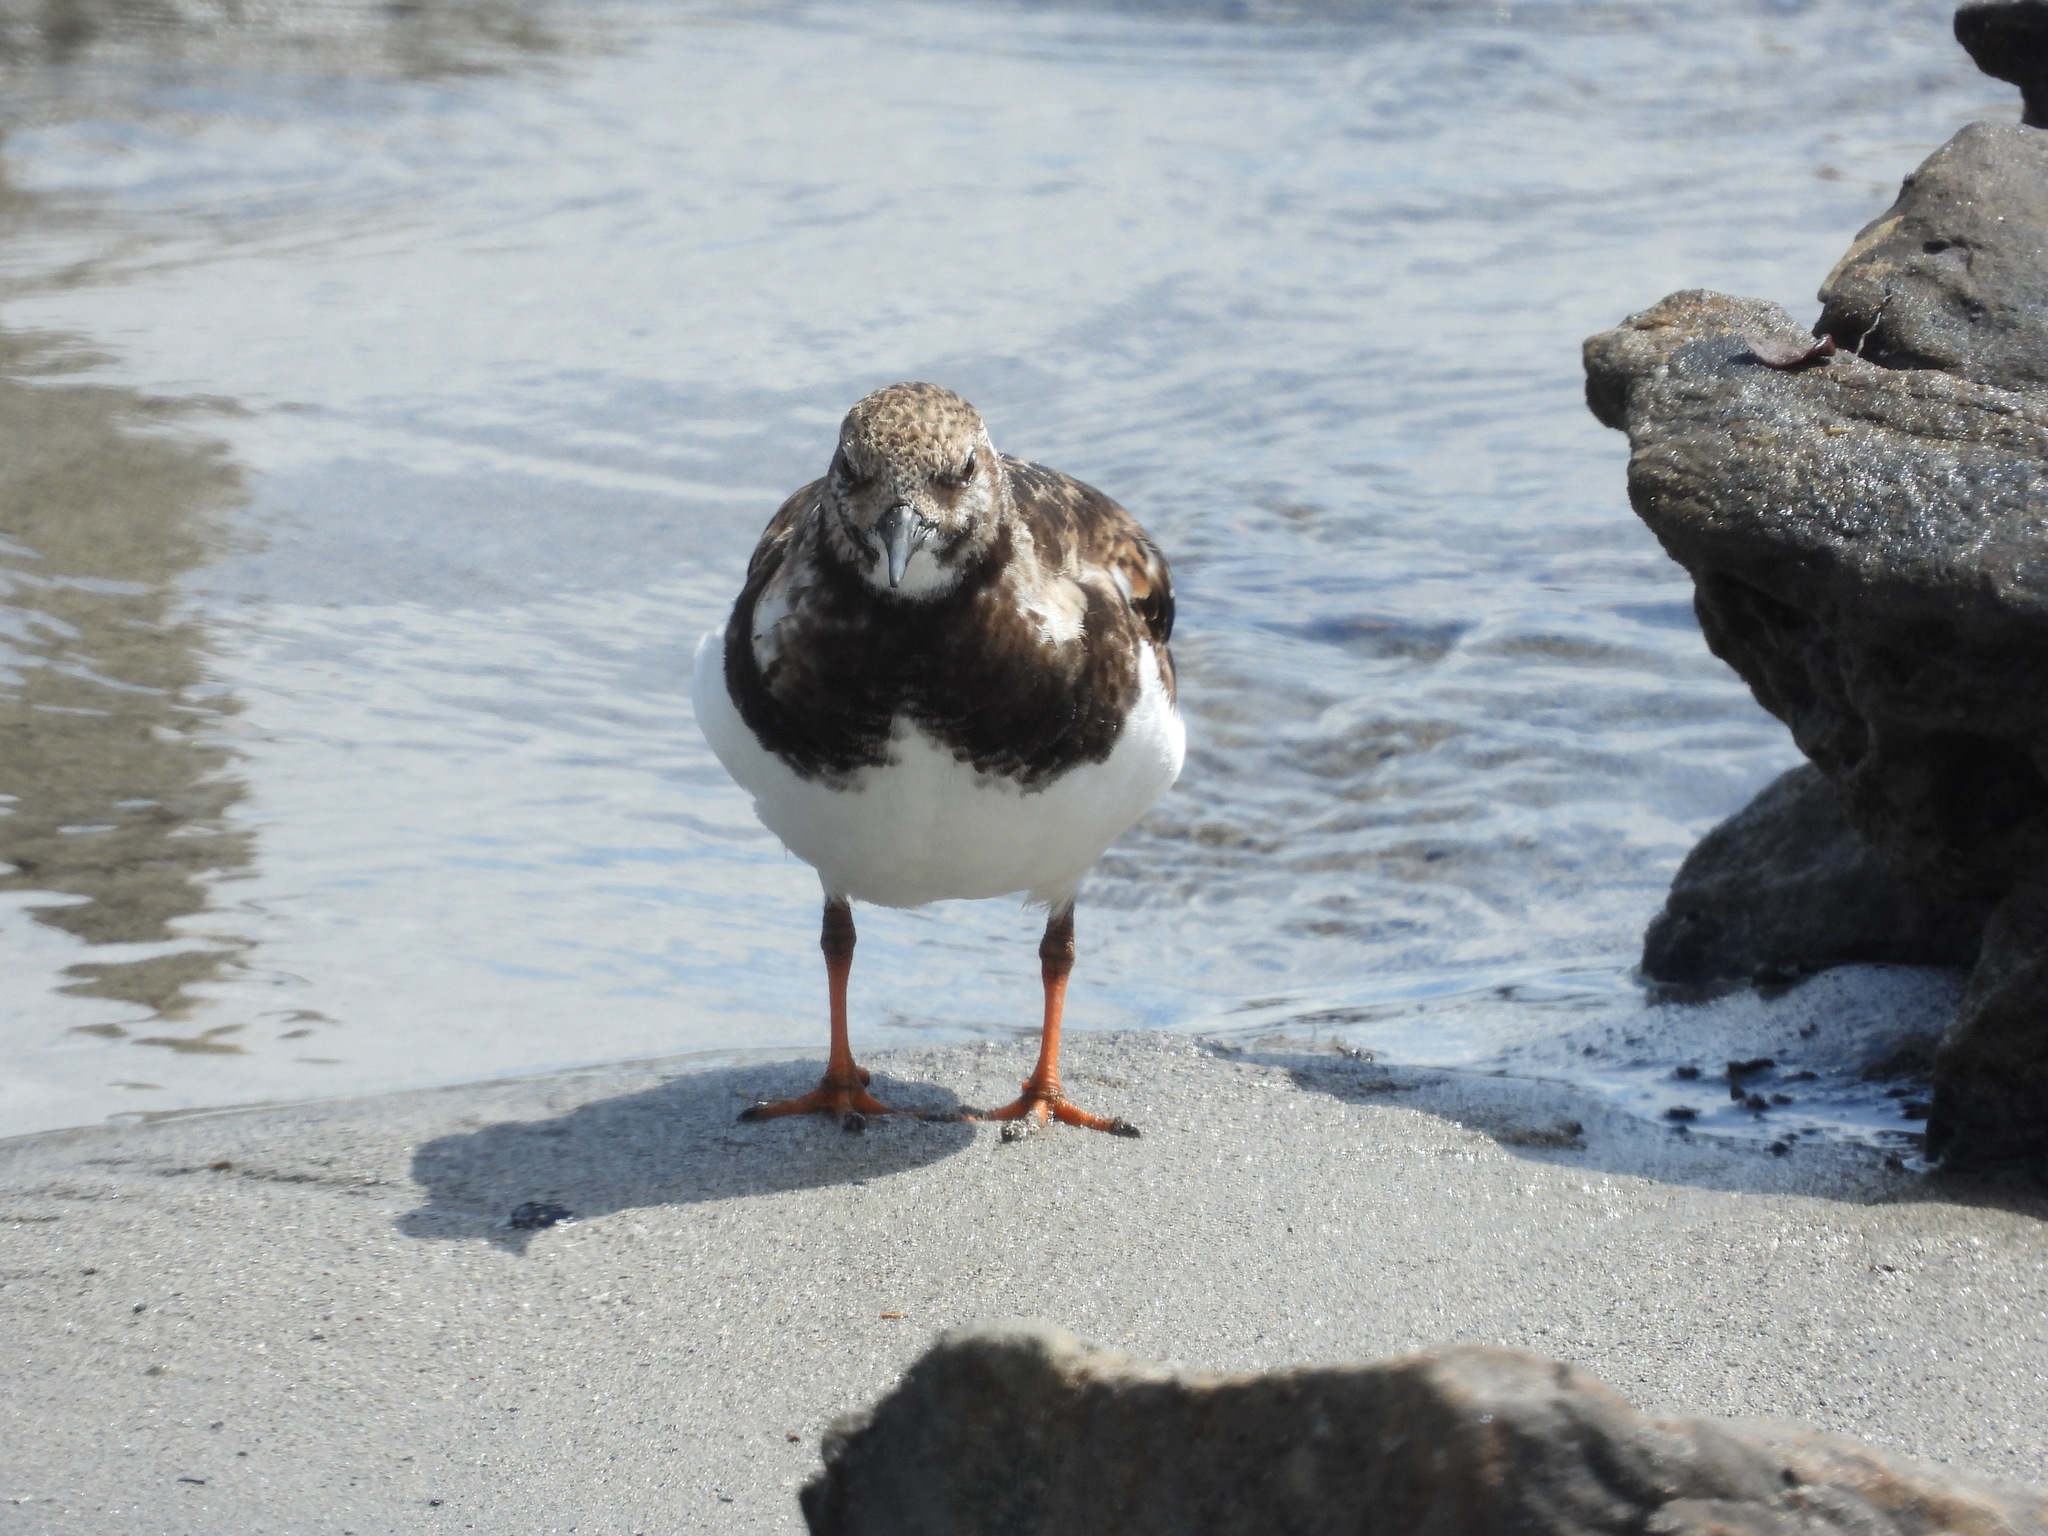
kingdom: Animalia
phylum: Chordata
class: Aves
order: Charadriiformes
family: Scolopacidae
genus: Arenaria
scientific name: Arenaria interpres
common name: Ruddy turnstone
